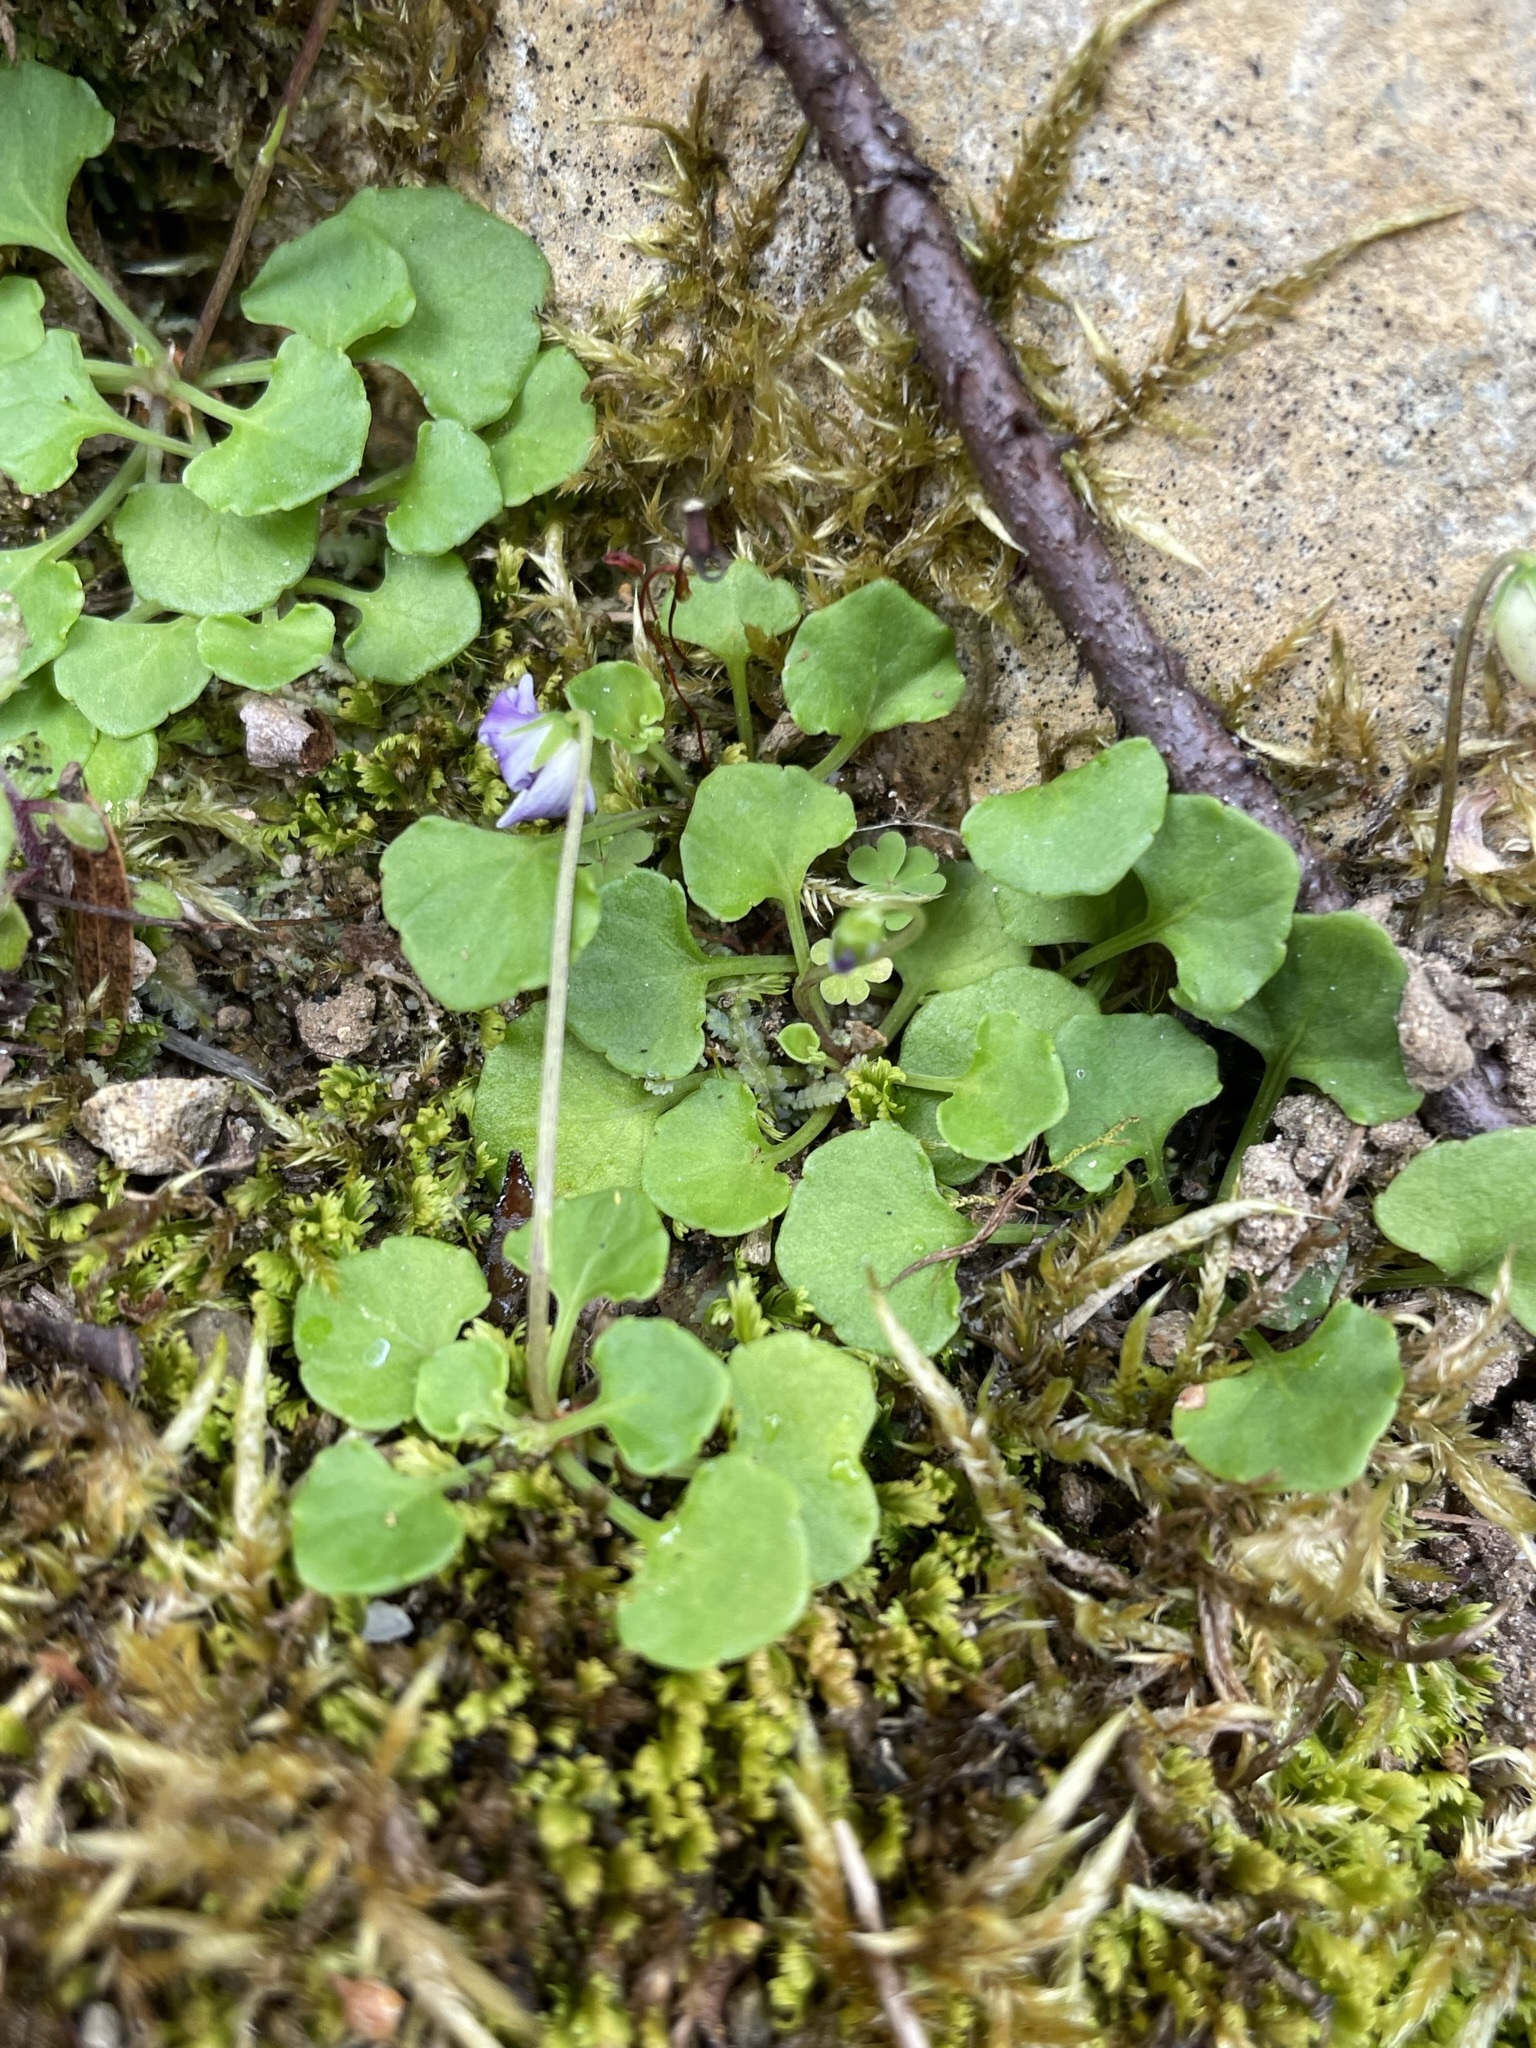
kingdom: Plantae
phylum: Tracheophyta
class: Magnoliopsida
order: Malpighiales
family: Violaceae
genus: Viola
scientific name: Viola hederacea
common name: Australian violet
